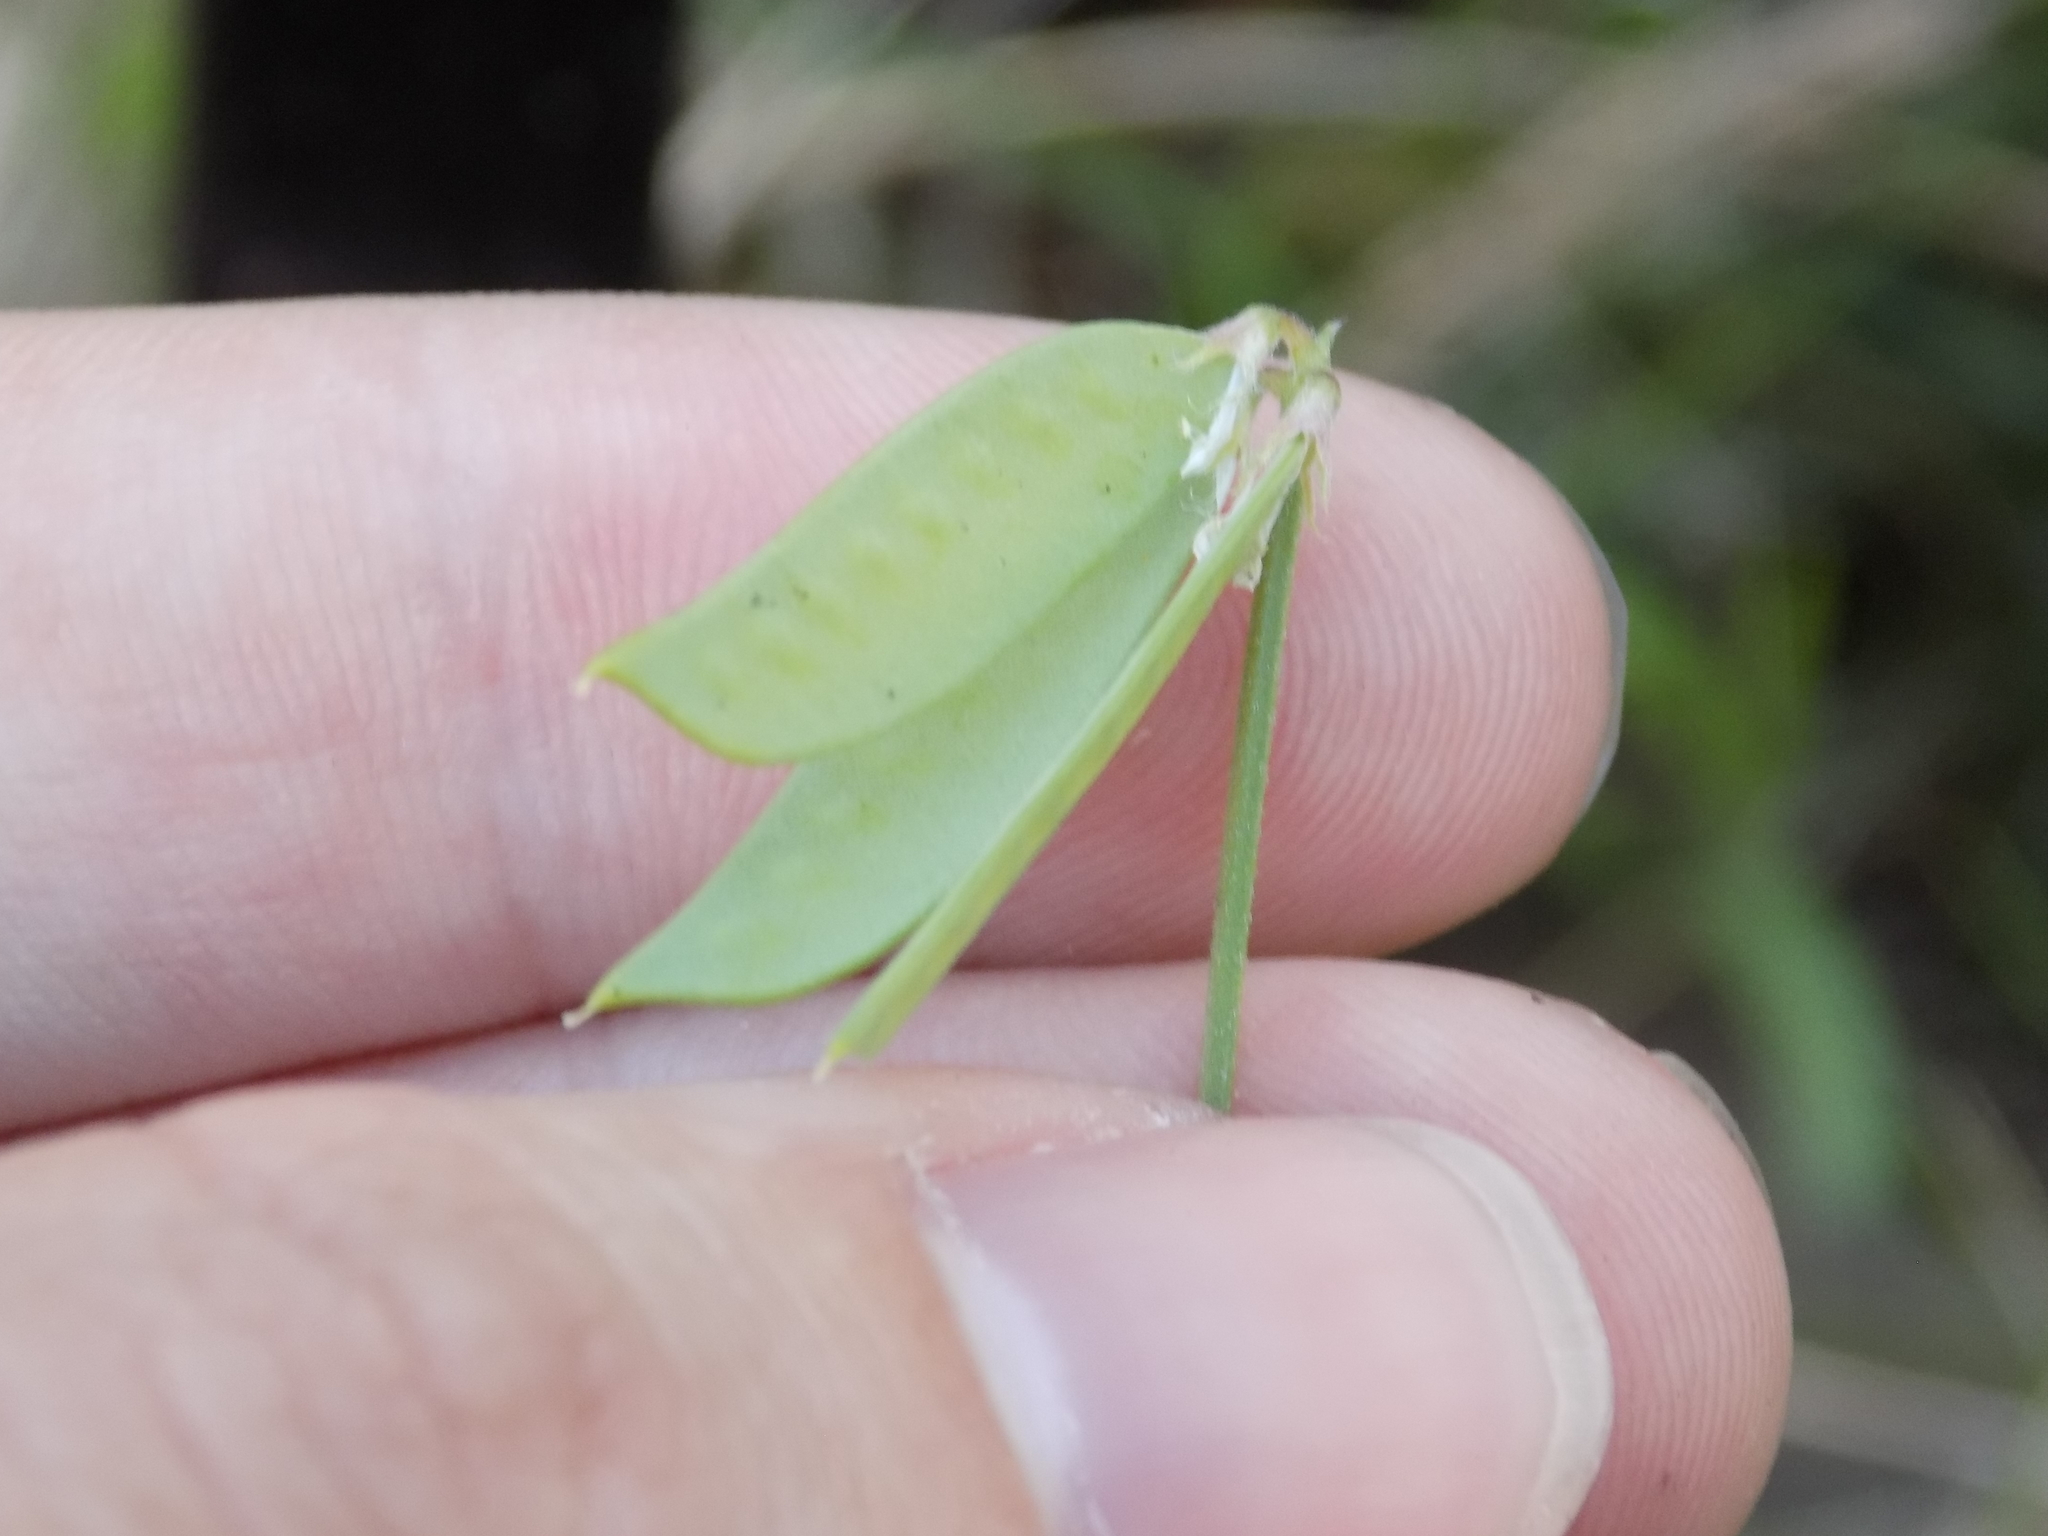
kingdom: Plantae
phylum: Tracheophyta
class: Magnoliopsida
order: Fabales
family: Fabaceae
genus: Vicia
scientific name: Vicia ludoviciana
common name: Louisiana vetch
